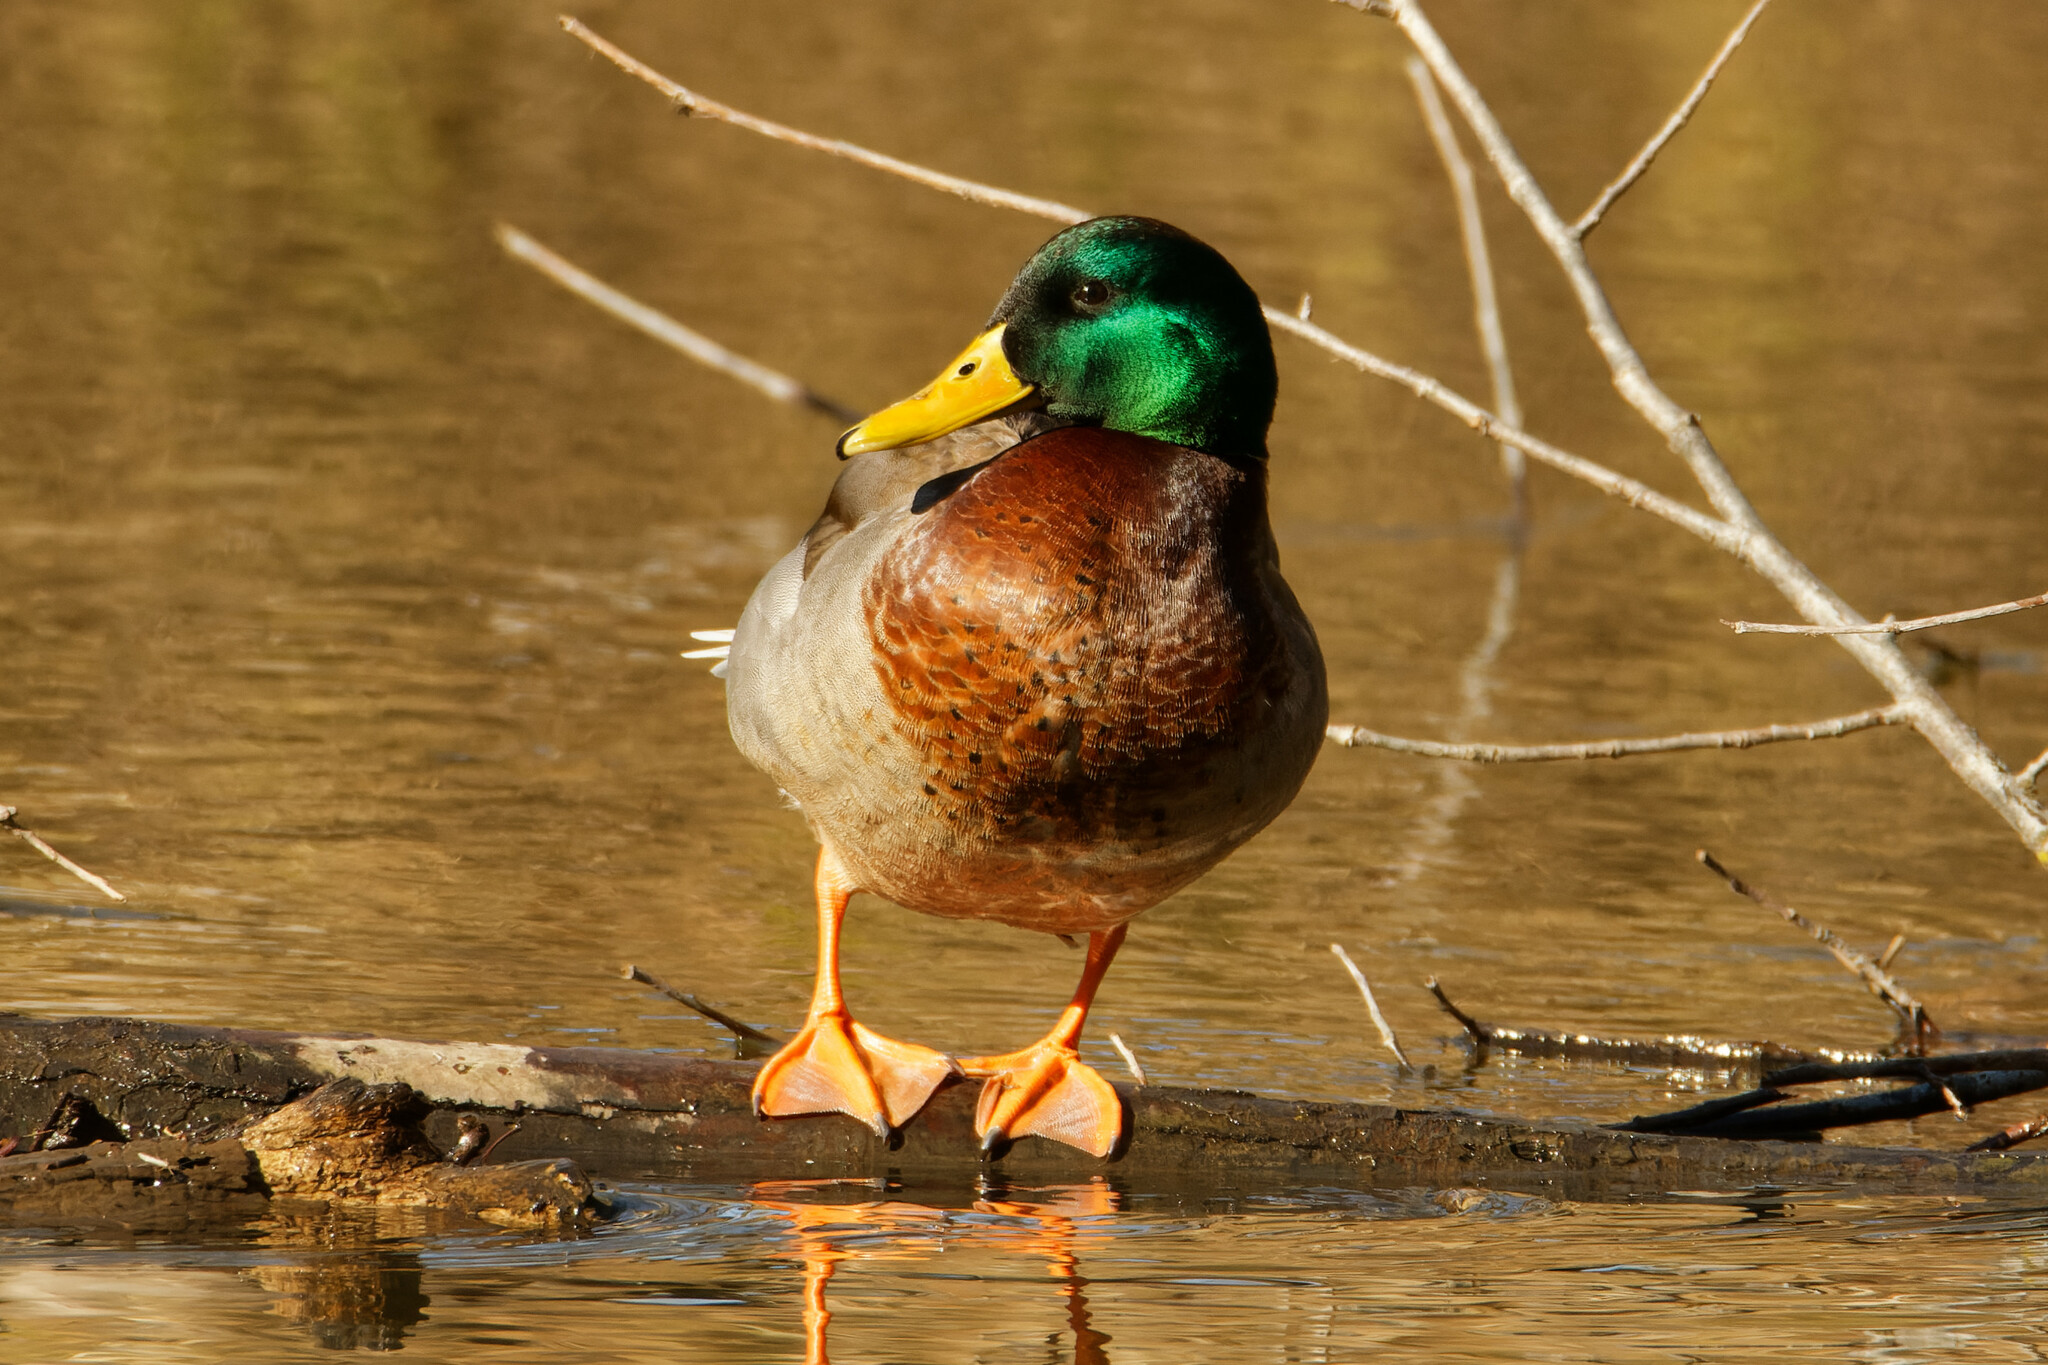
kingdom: Animalia
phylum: Chordata
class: Aves
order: Anseriformes
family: Anatidae
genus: Anas
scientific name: Anas platyrhynchos
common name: Mallard
